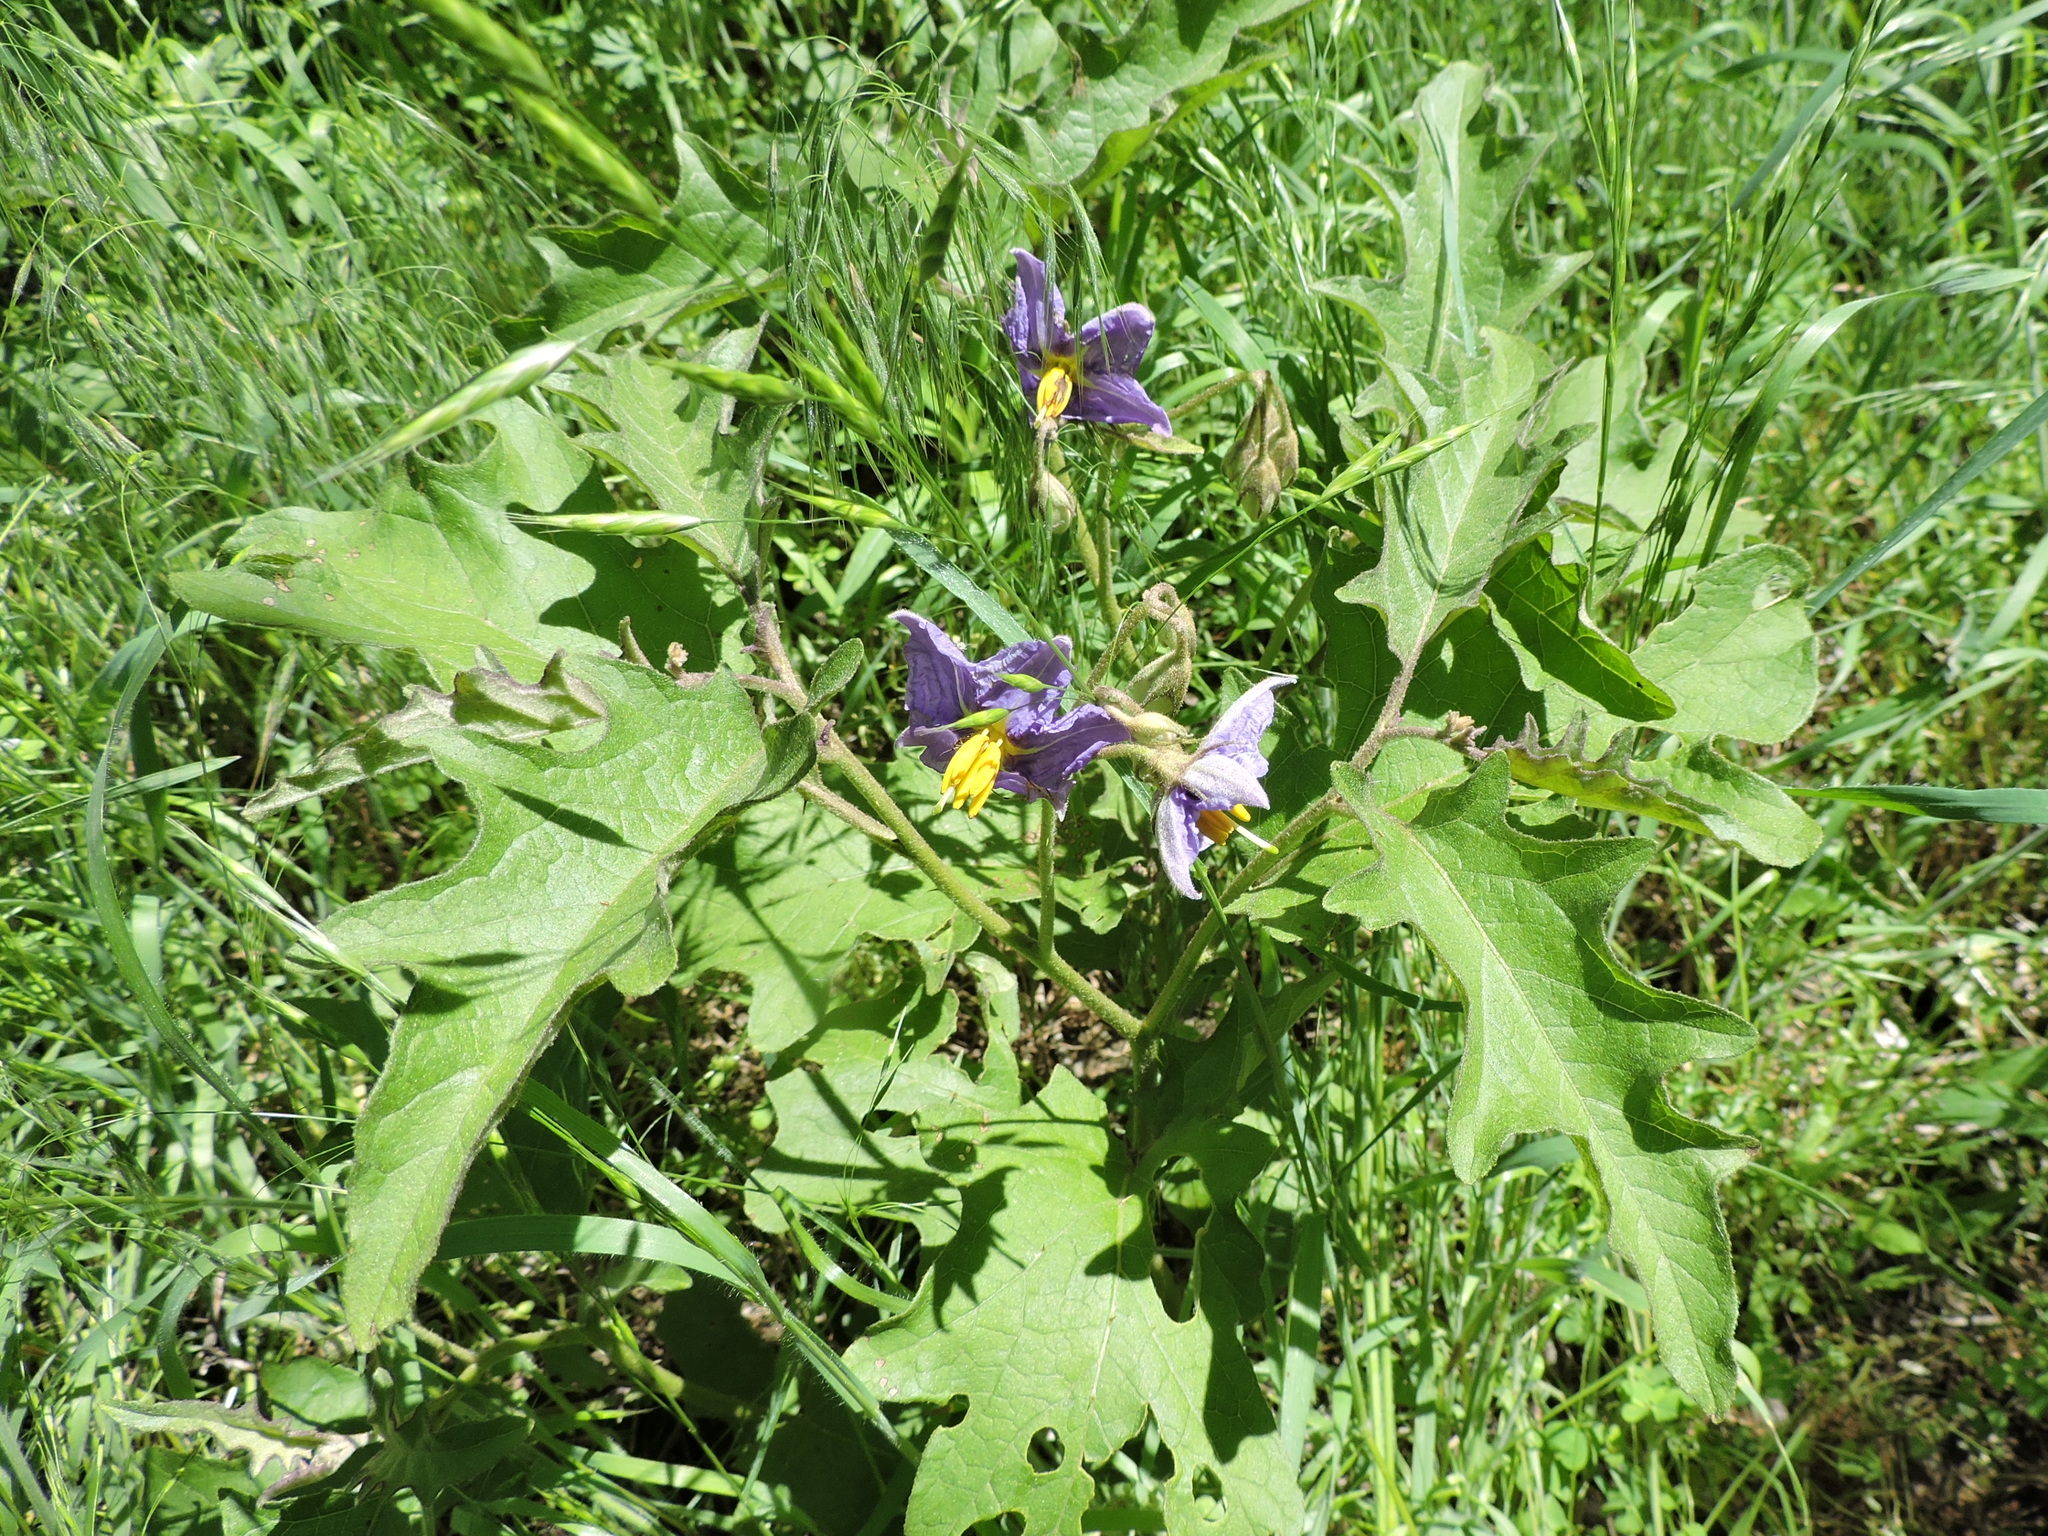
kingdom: Plantae
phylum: Tracheophyta
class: Magnoliopsida
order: Solanales
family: Solanaceae
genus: Solanum
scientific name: Solanum dimidiatum
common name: Carolina horse-nettle
